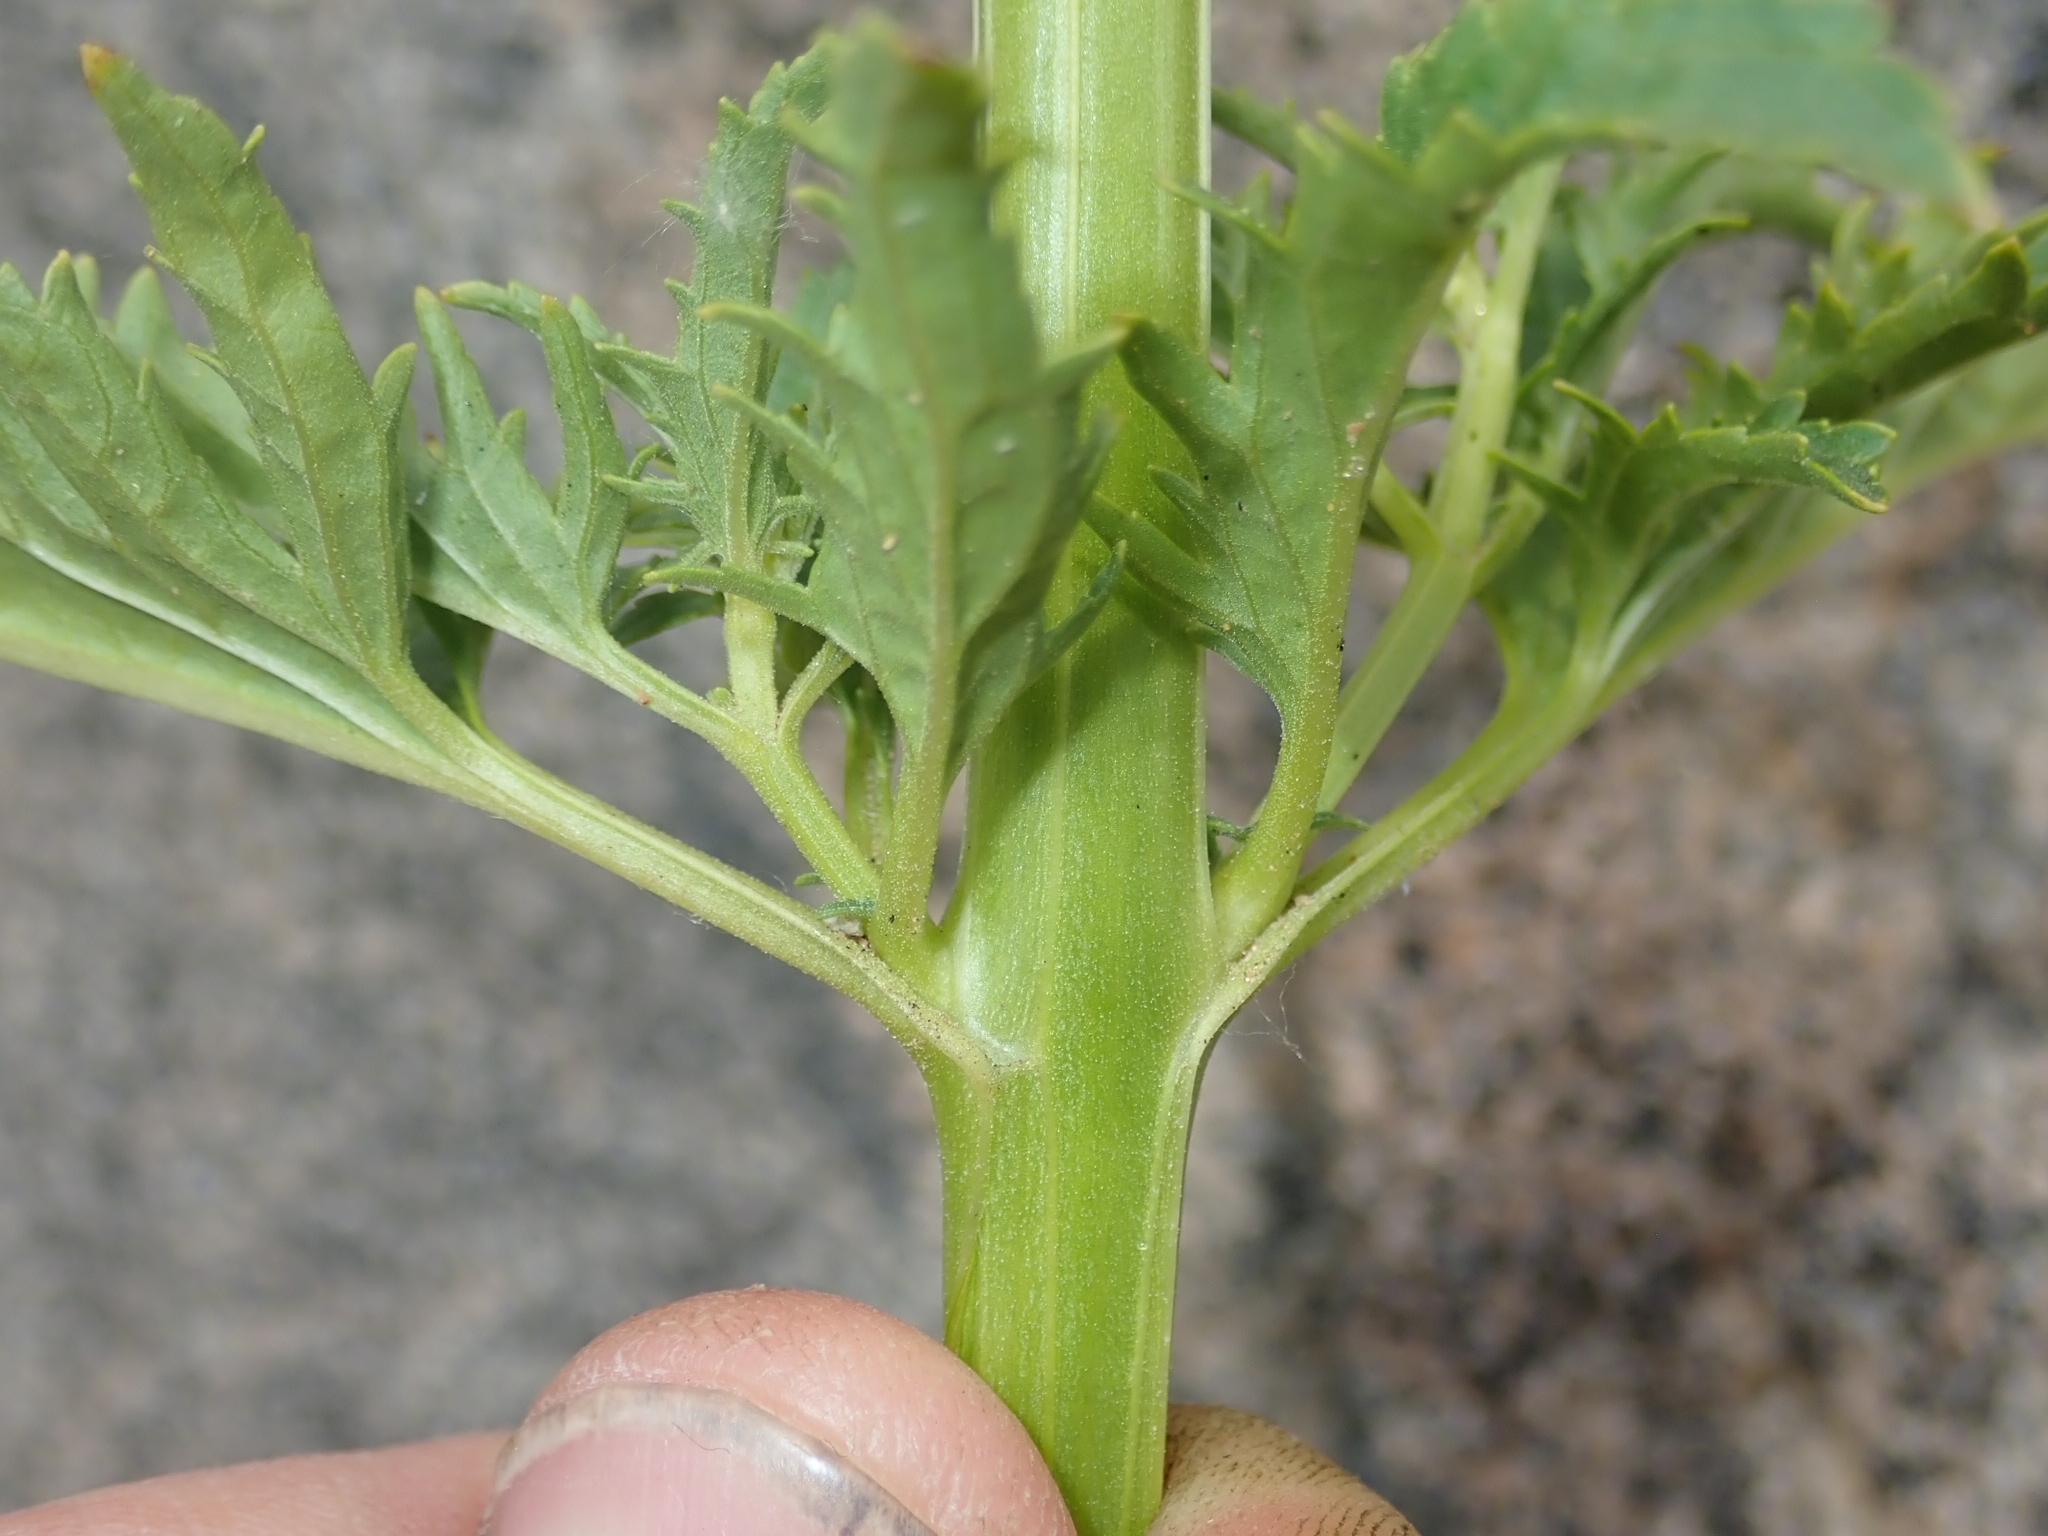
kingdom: Plantae
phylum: Tracheophyta
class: Magnoliopsida
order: Lamiales
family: Scrophulariaceae
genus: Scrophularia
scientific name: Scrophularia californica
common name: California figwort
